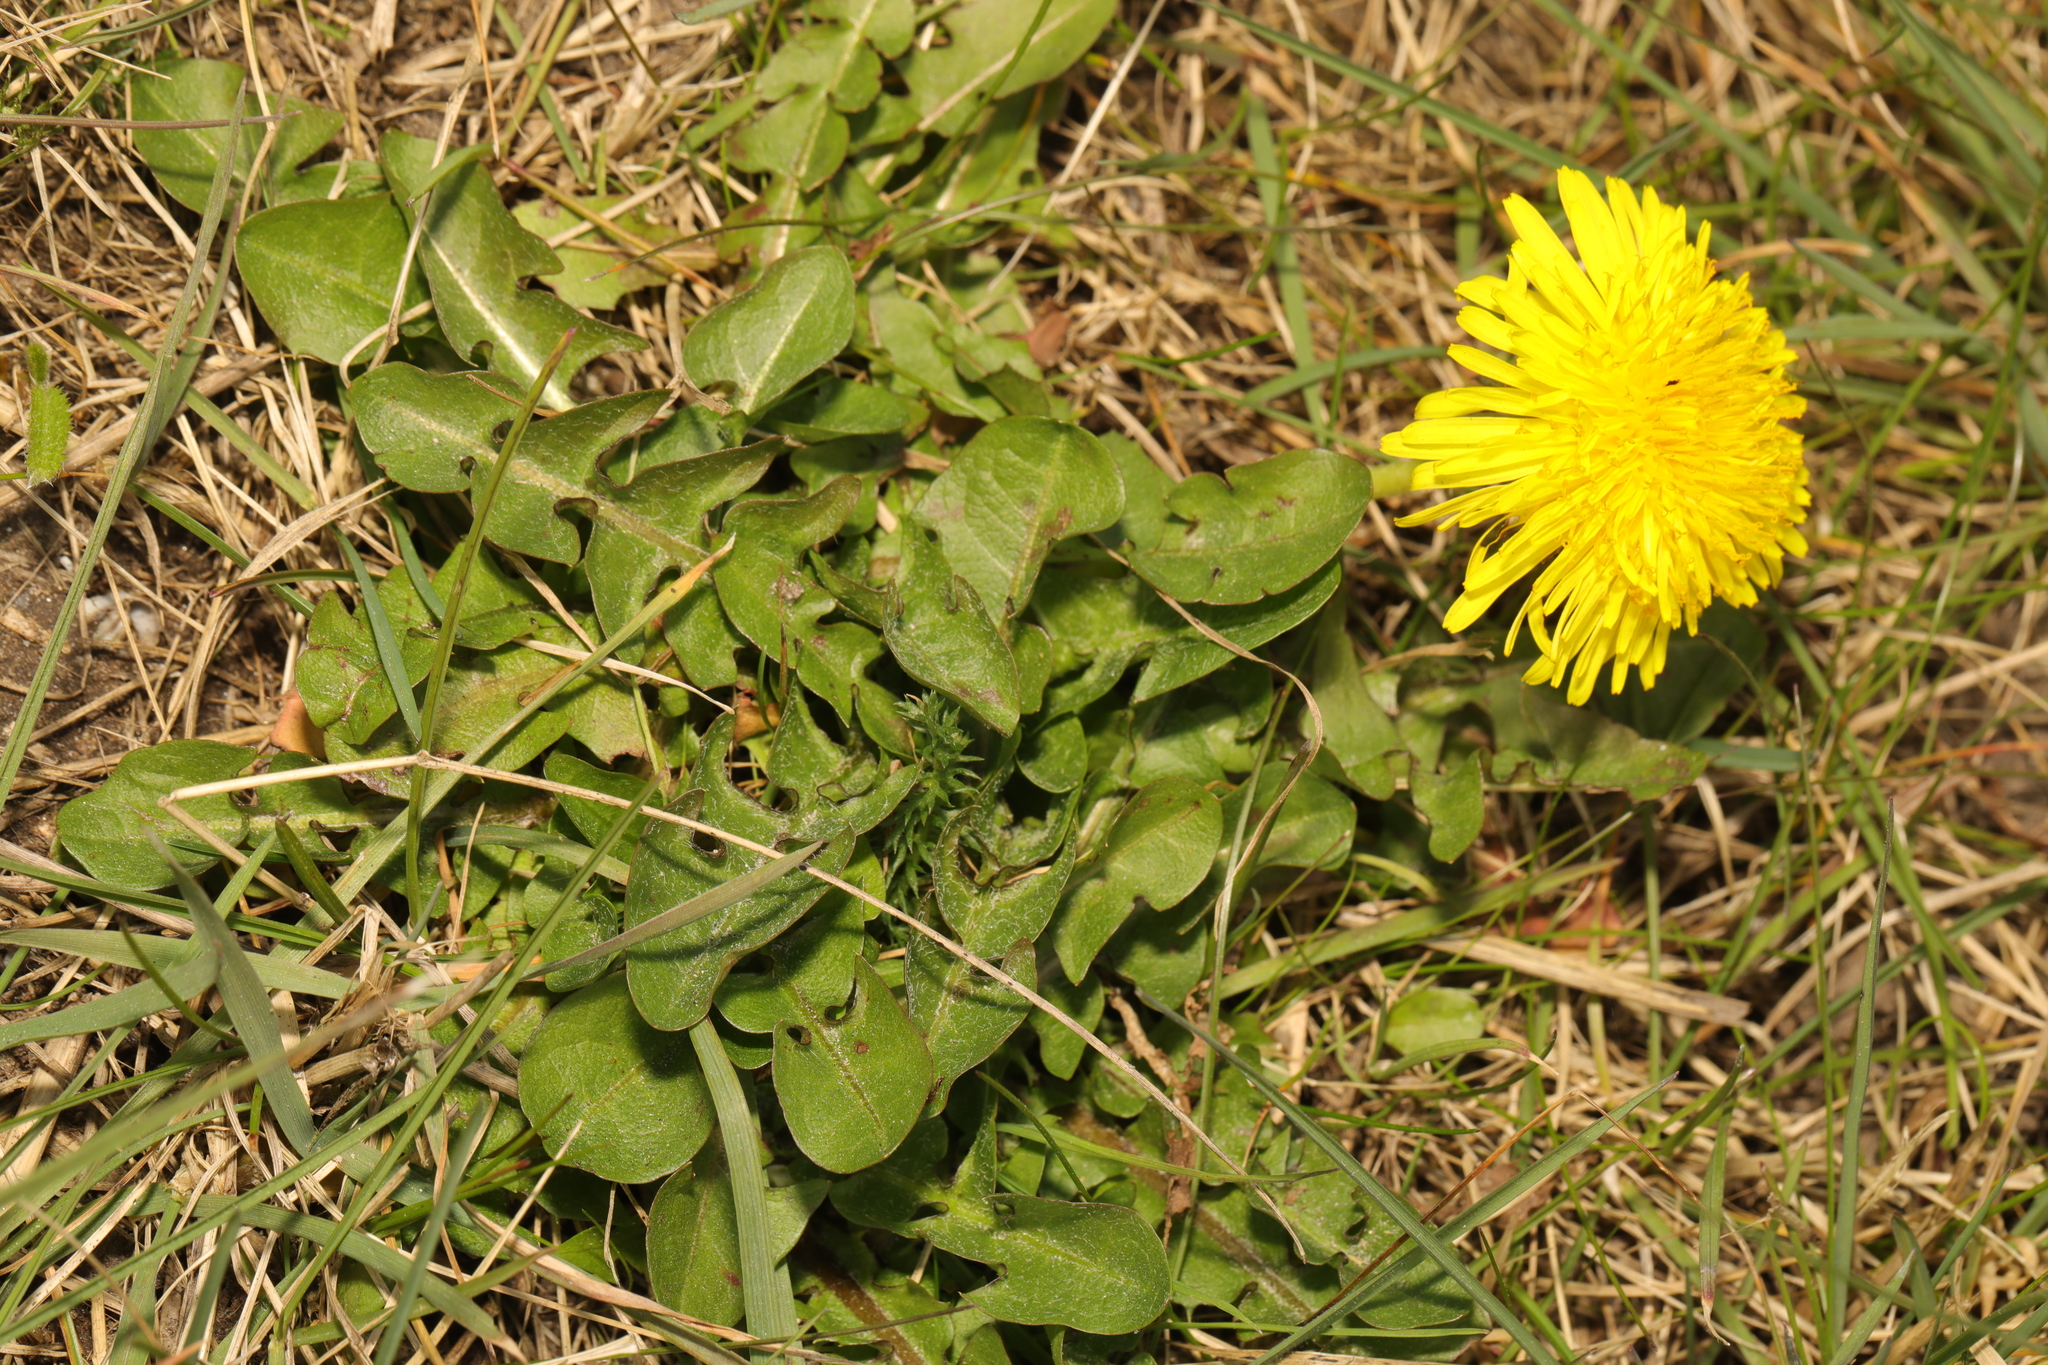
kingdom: Plantae
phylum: Tracheophyta
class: Magnoliopsida
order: Asterales
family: Asteraceae
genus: Taraxacum
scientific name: Taraxacum officinale
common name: Common dandelion
